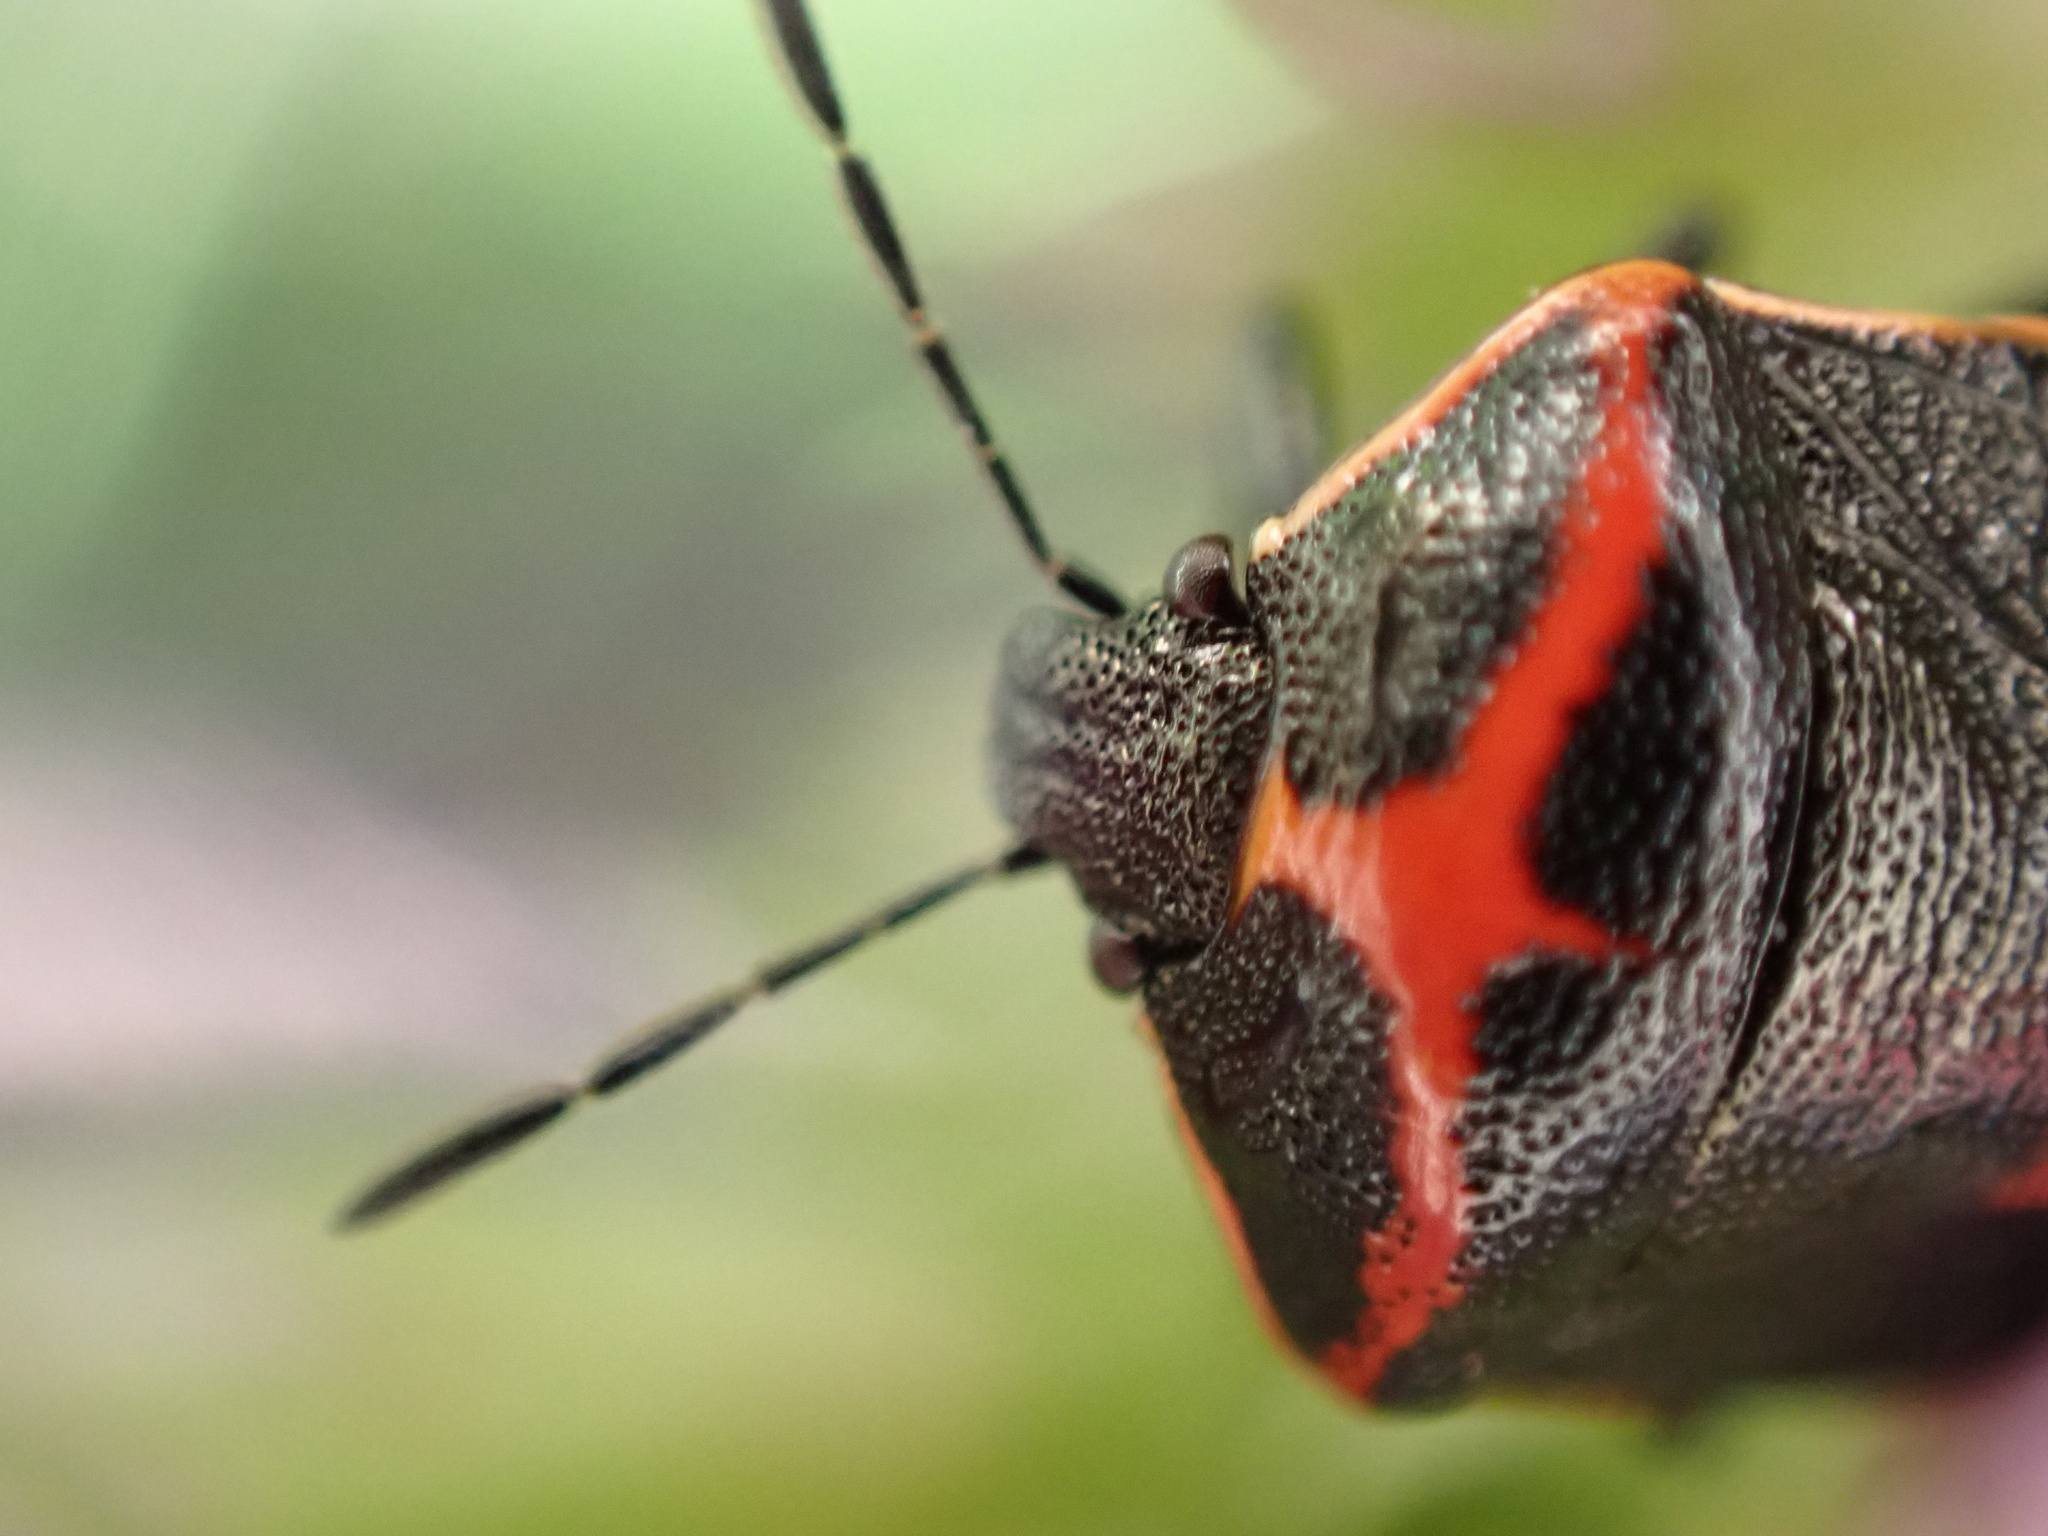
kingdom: Animalia
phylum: Arthropoda
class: Insecta
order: Hemiptera
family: Pentatomidae
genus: Cosmopepla
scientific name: Cosmopepla lintneriana
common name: Twice-stabbed stink bug
